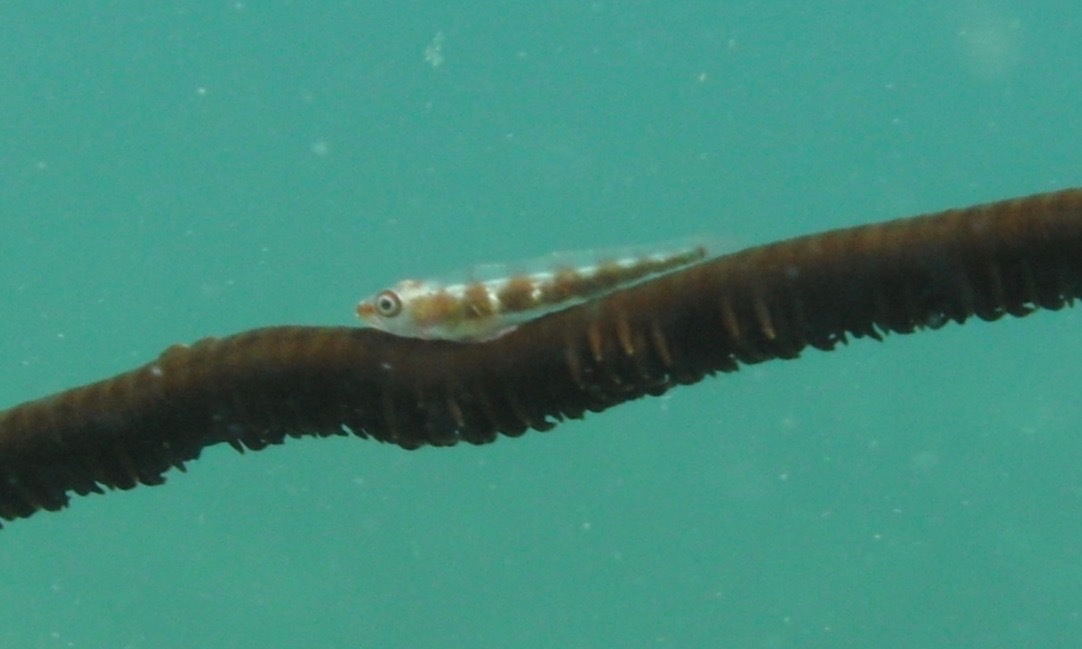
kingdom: Animalia
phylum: Chordata
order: Perciformes
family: Gobiidae
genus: Bryaninops
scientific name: Bryaninops yongei
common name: Whip coral goby
